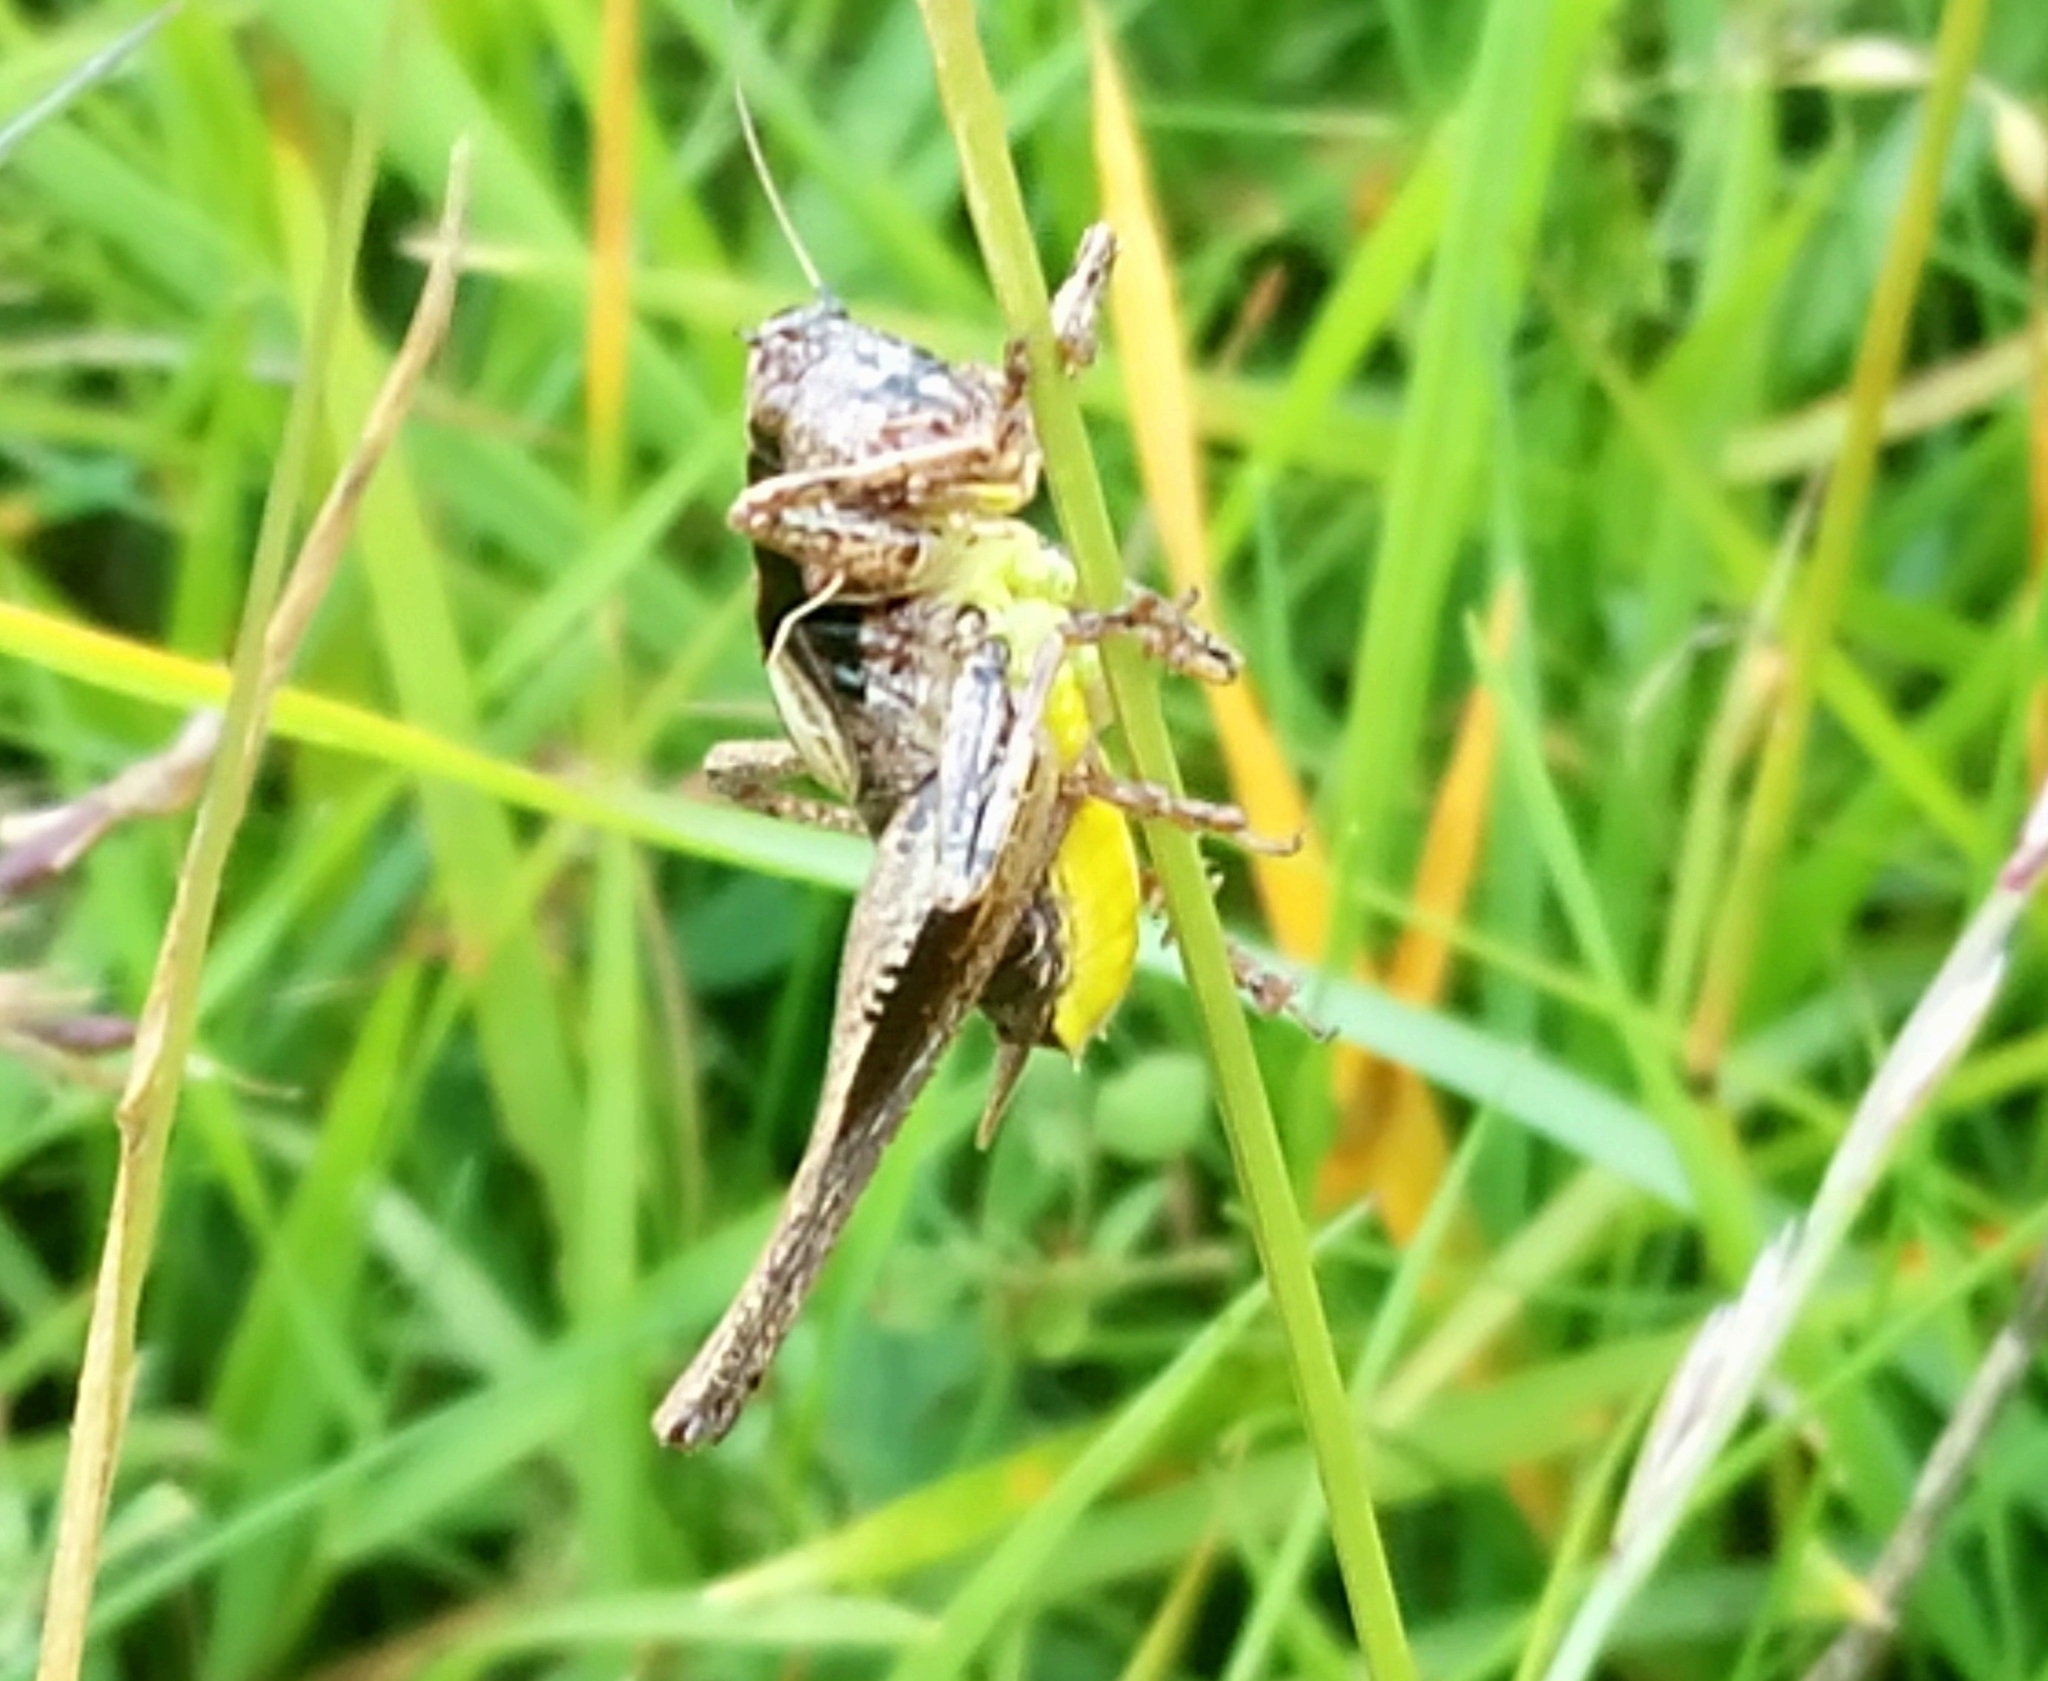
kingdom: Animalia
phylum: Arthropoda
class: Insecta
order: Orthoptera
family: Tettigoniidae
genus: Pholidoptera
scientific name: Pholidoptera griseoaptera
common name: Dark bush-cricket
